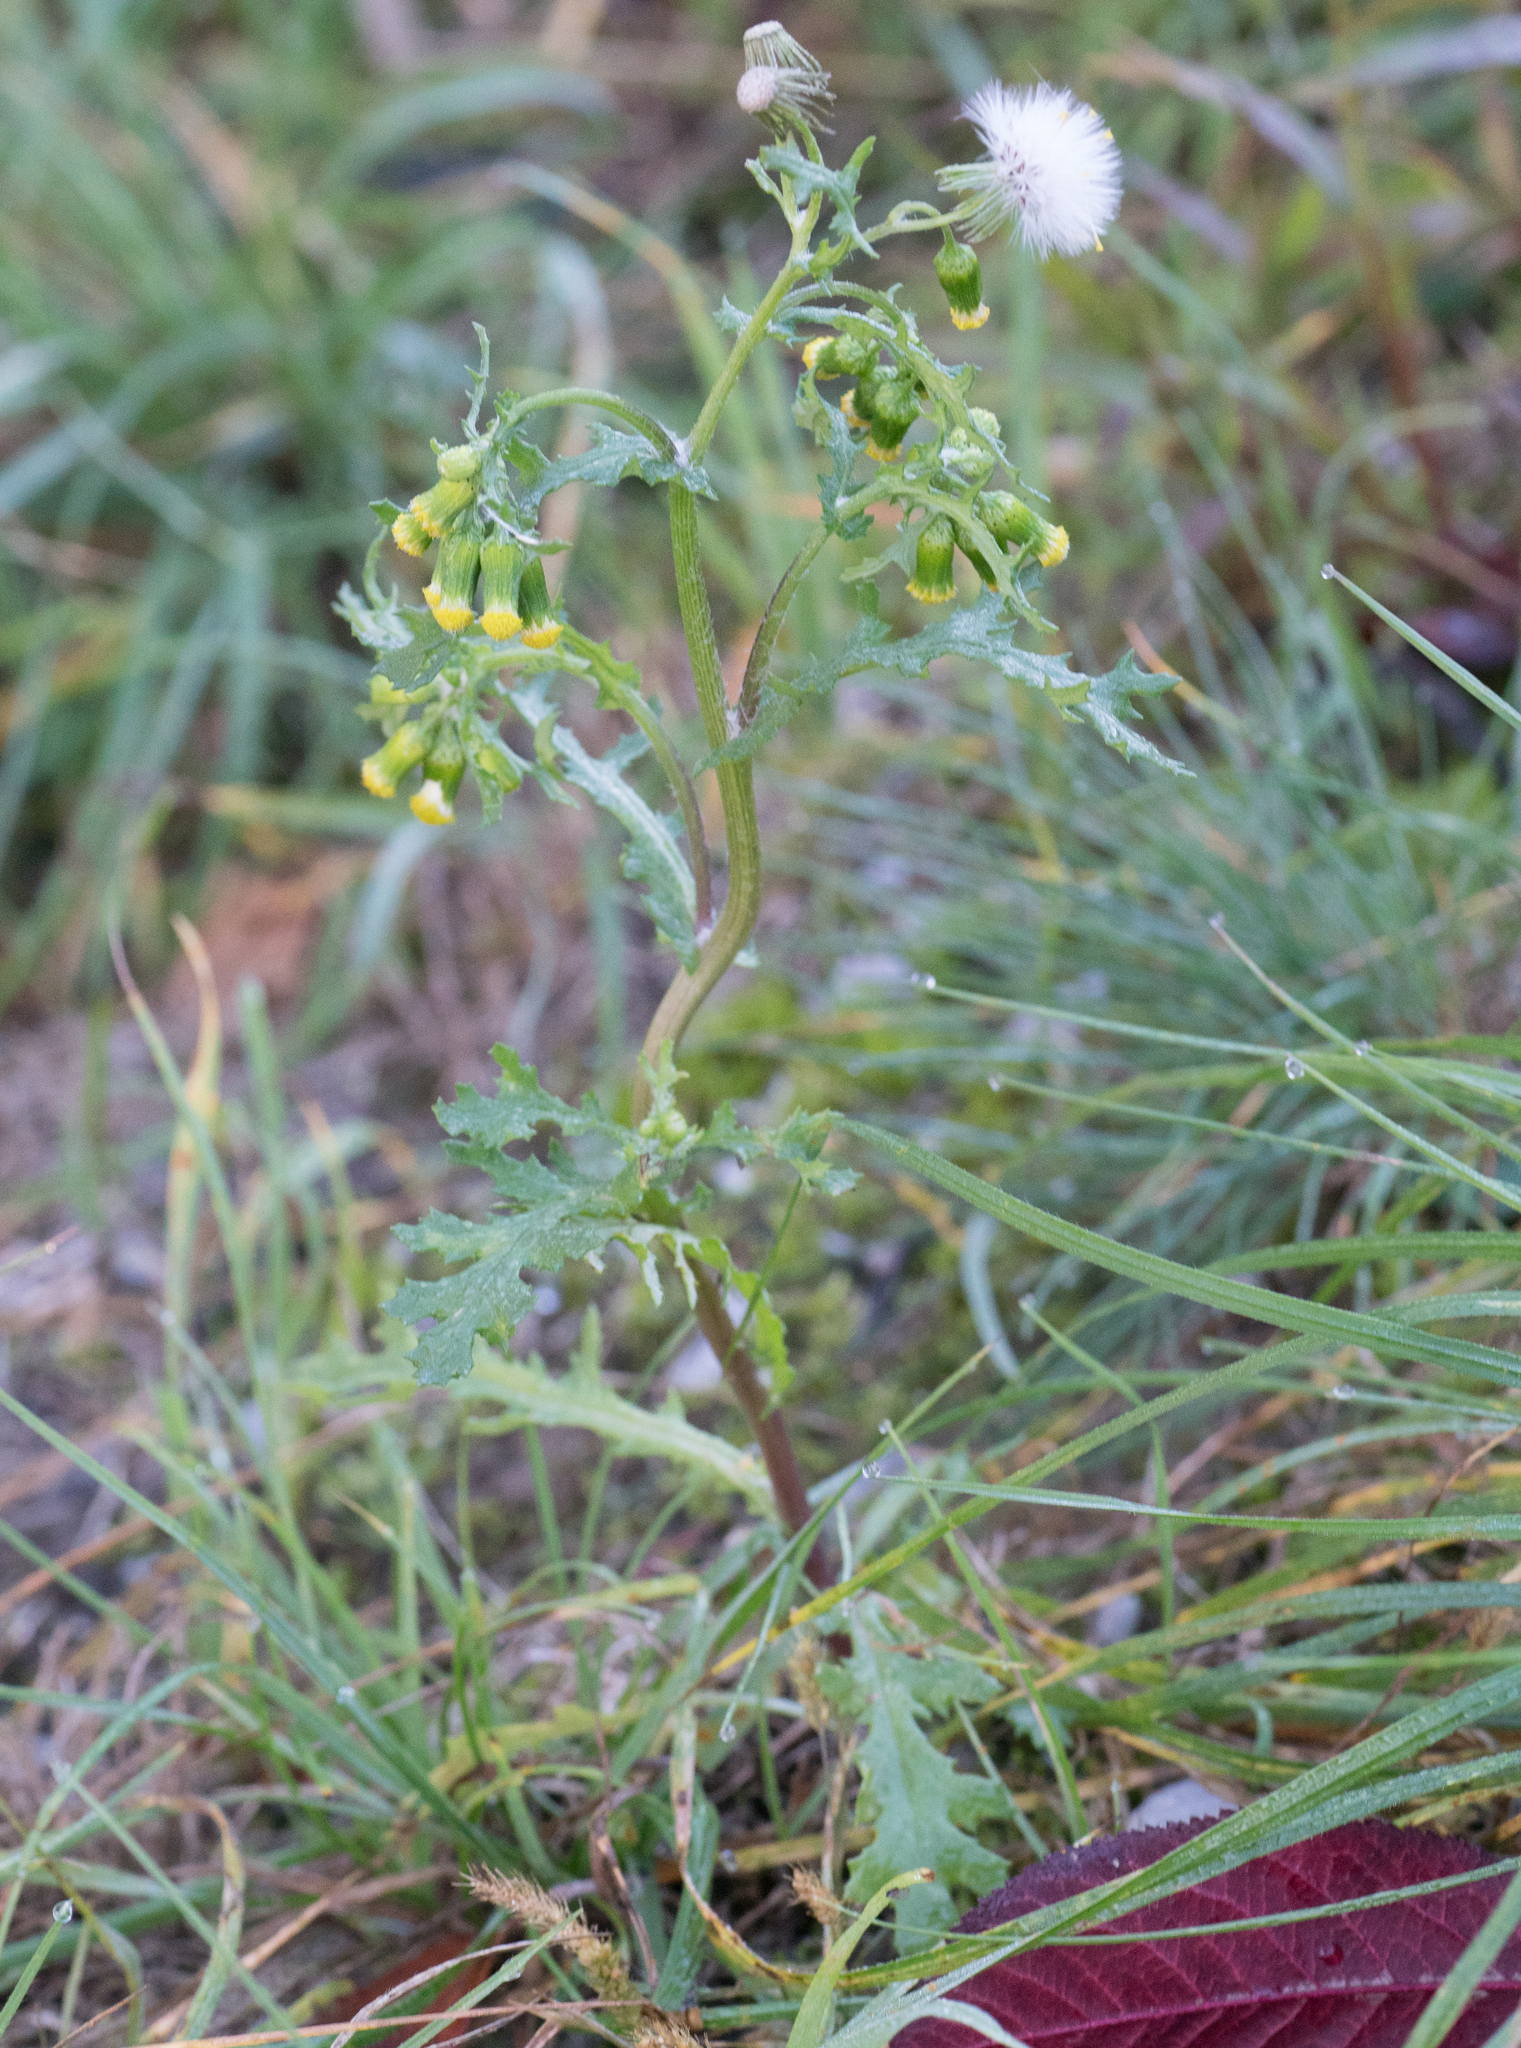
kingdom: Plantae
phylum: Tracheophyta
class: Magnoliopsida
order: Asterales
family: Asteraceae
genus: Senecio
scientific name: Senecio vulgaris
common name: Old-man-in-the-spring
